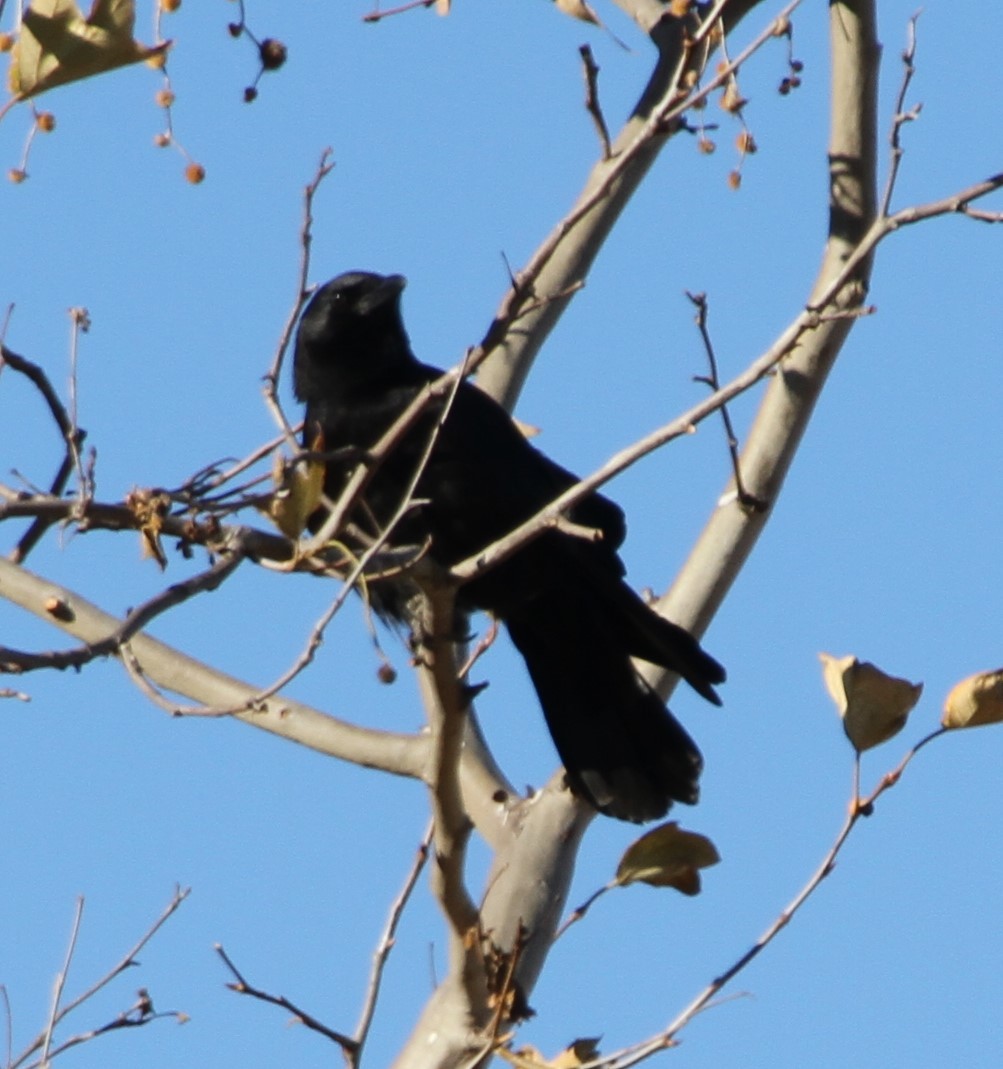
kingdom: Animalia
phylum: Chordata
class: Aves
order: Passeriformes
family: Corvidae
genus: Corvus
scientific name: Corvus brachyrhynchos
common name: American crow
